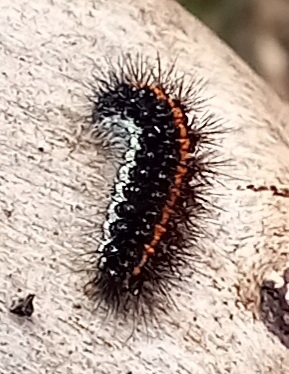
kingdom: Animalia
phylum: Arthropoda
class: Insecta
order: Lepidoptera
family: Erebidae
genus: Coscinia
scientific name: Coscinia Spiris striata
